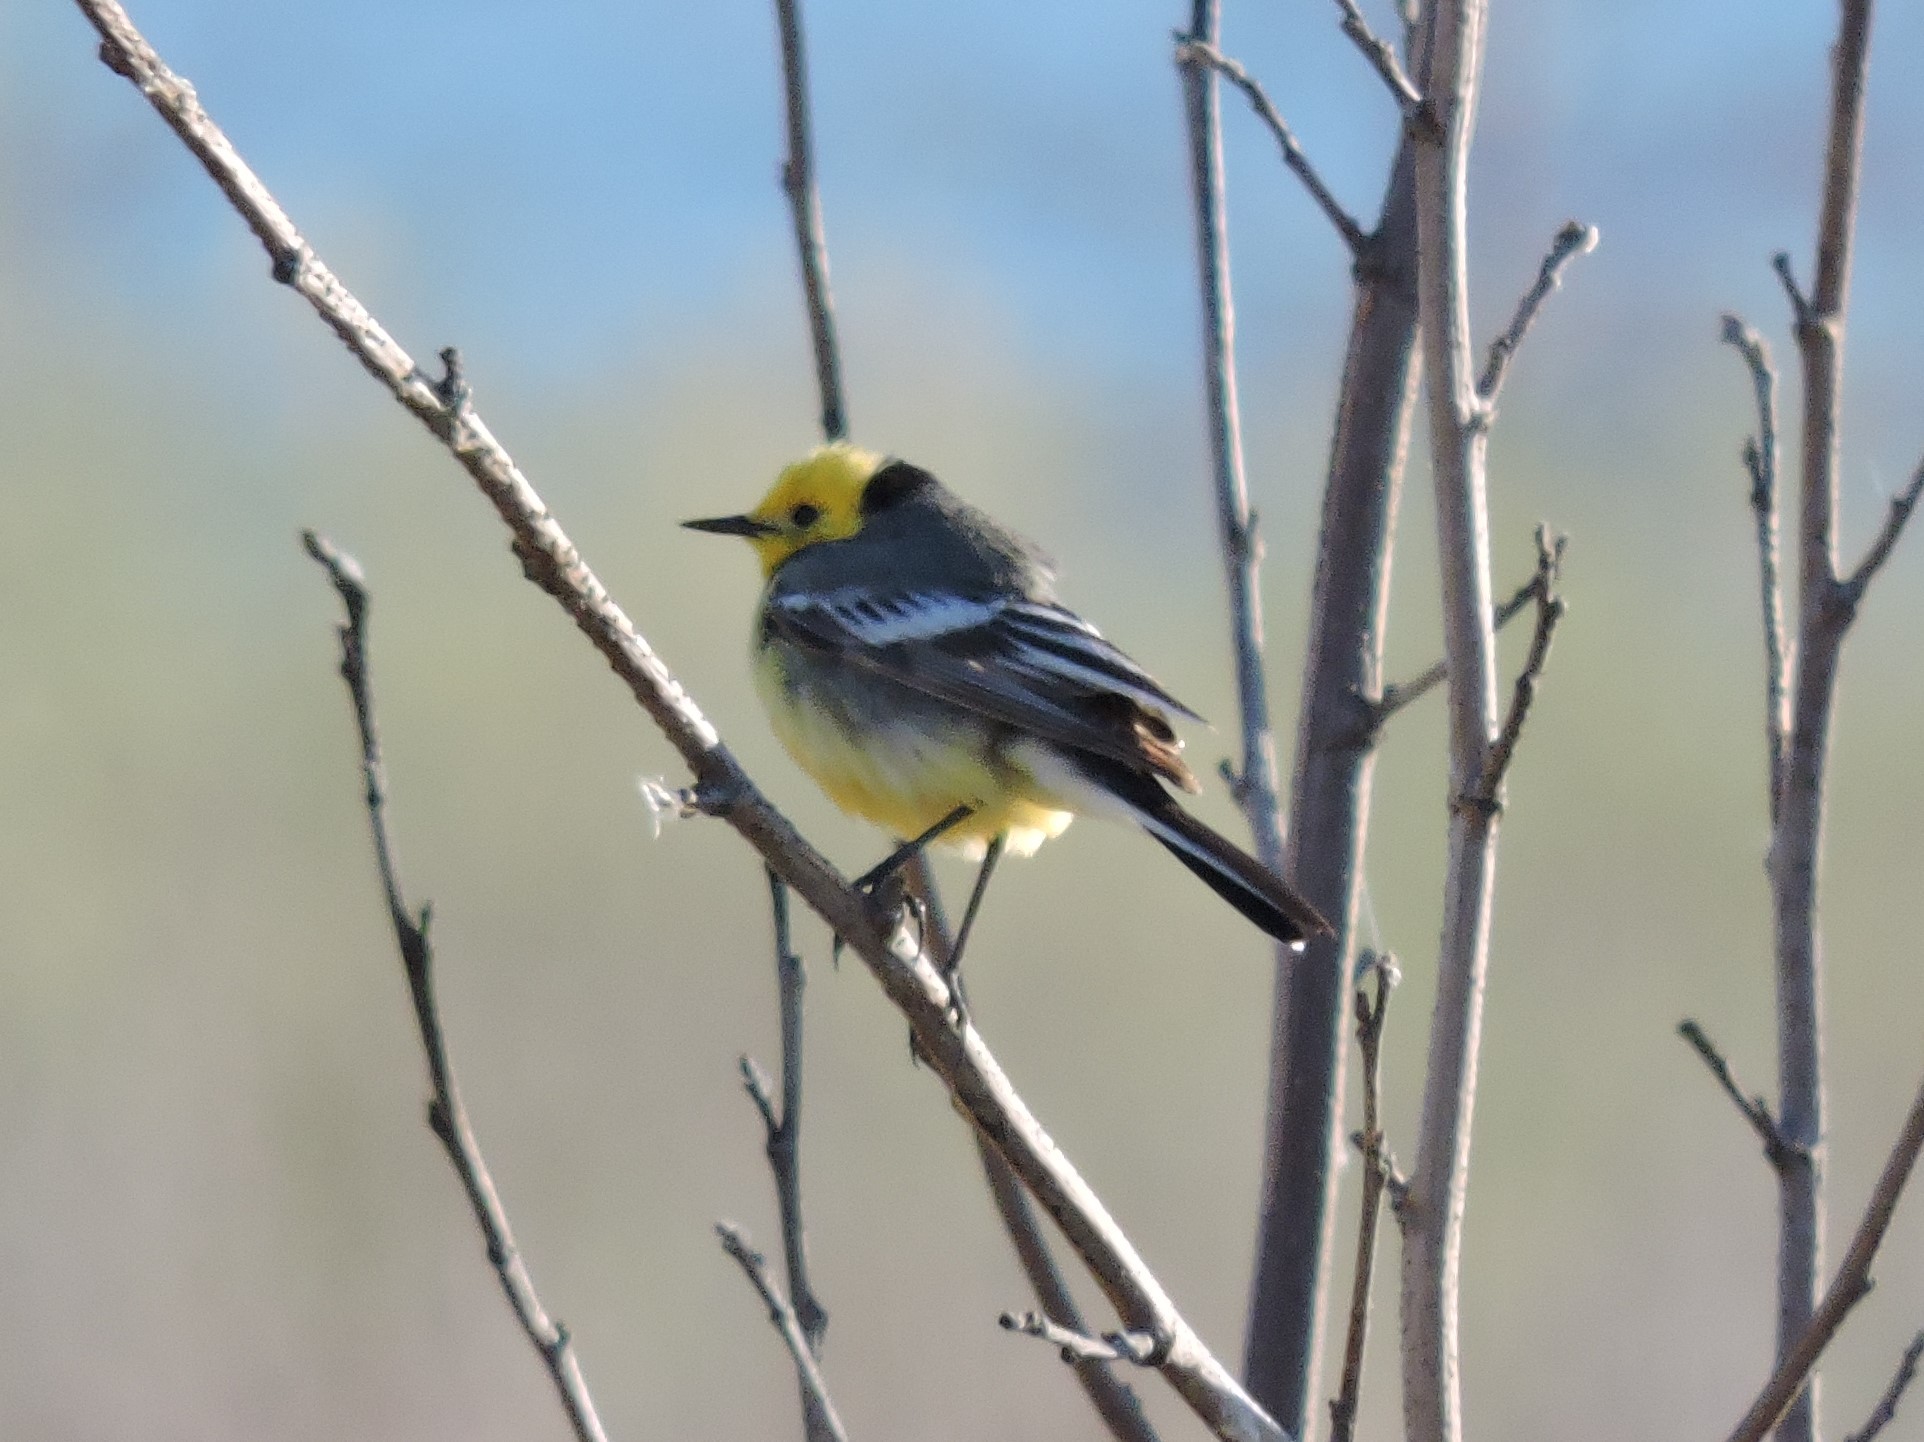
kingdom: Animalia
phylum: Chordata
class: Aves
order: Passeriformes
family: Motacillidae
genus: Motacilla
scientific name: Motacilla citreola
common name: Citrine wagtail
